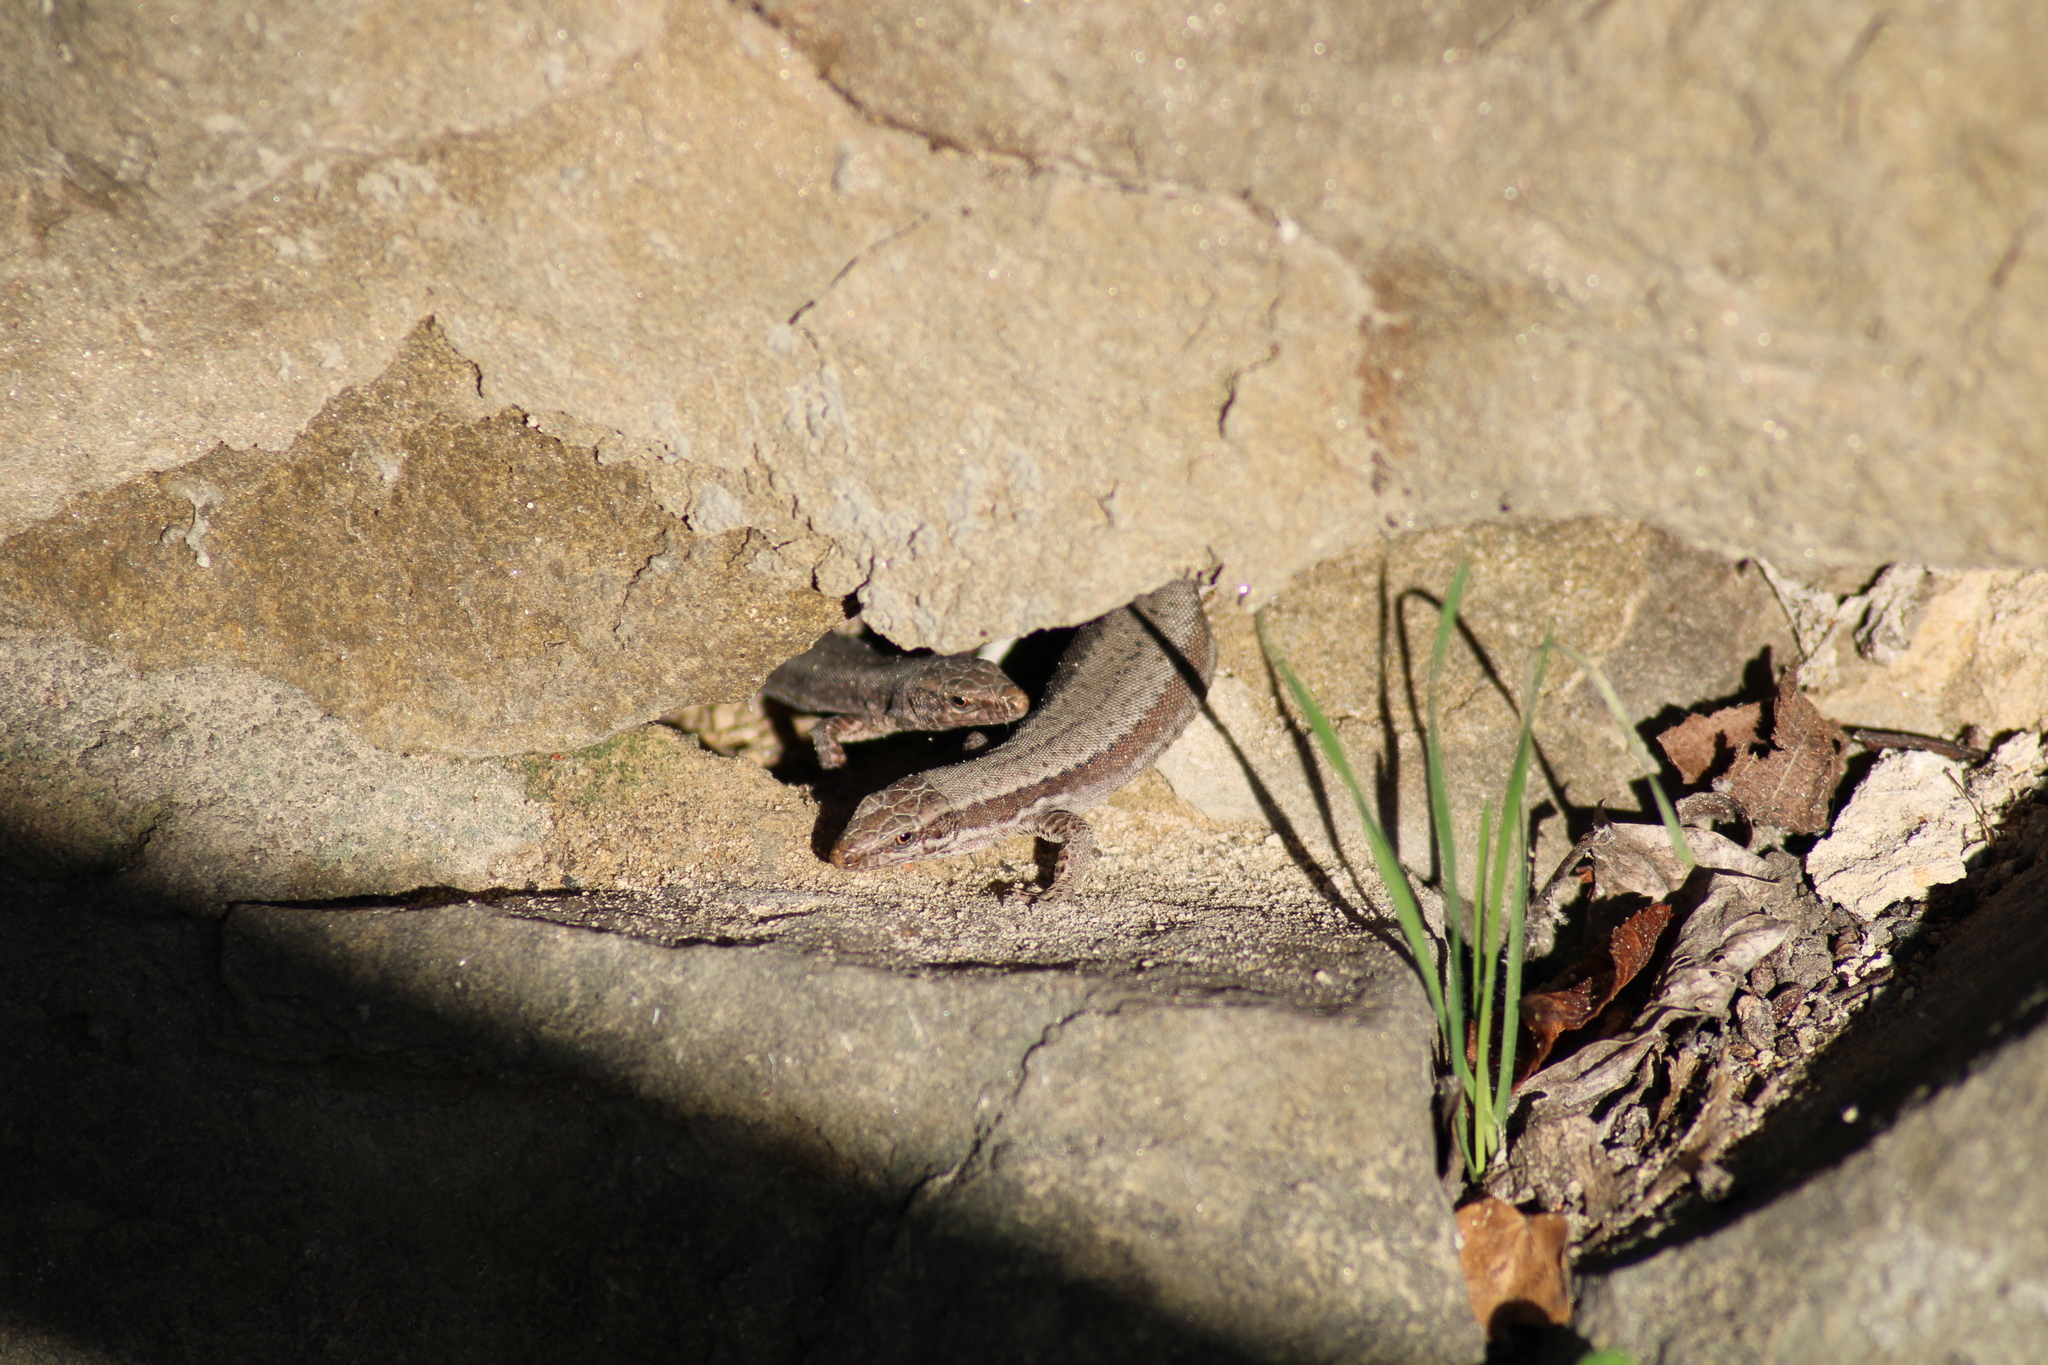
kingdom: Animalia
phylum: Chordata
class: Squamata
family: Lacertidae
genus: Podarcis
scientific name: Podarcis muralis
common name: Common wall lizard
